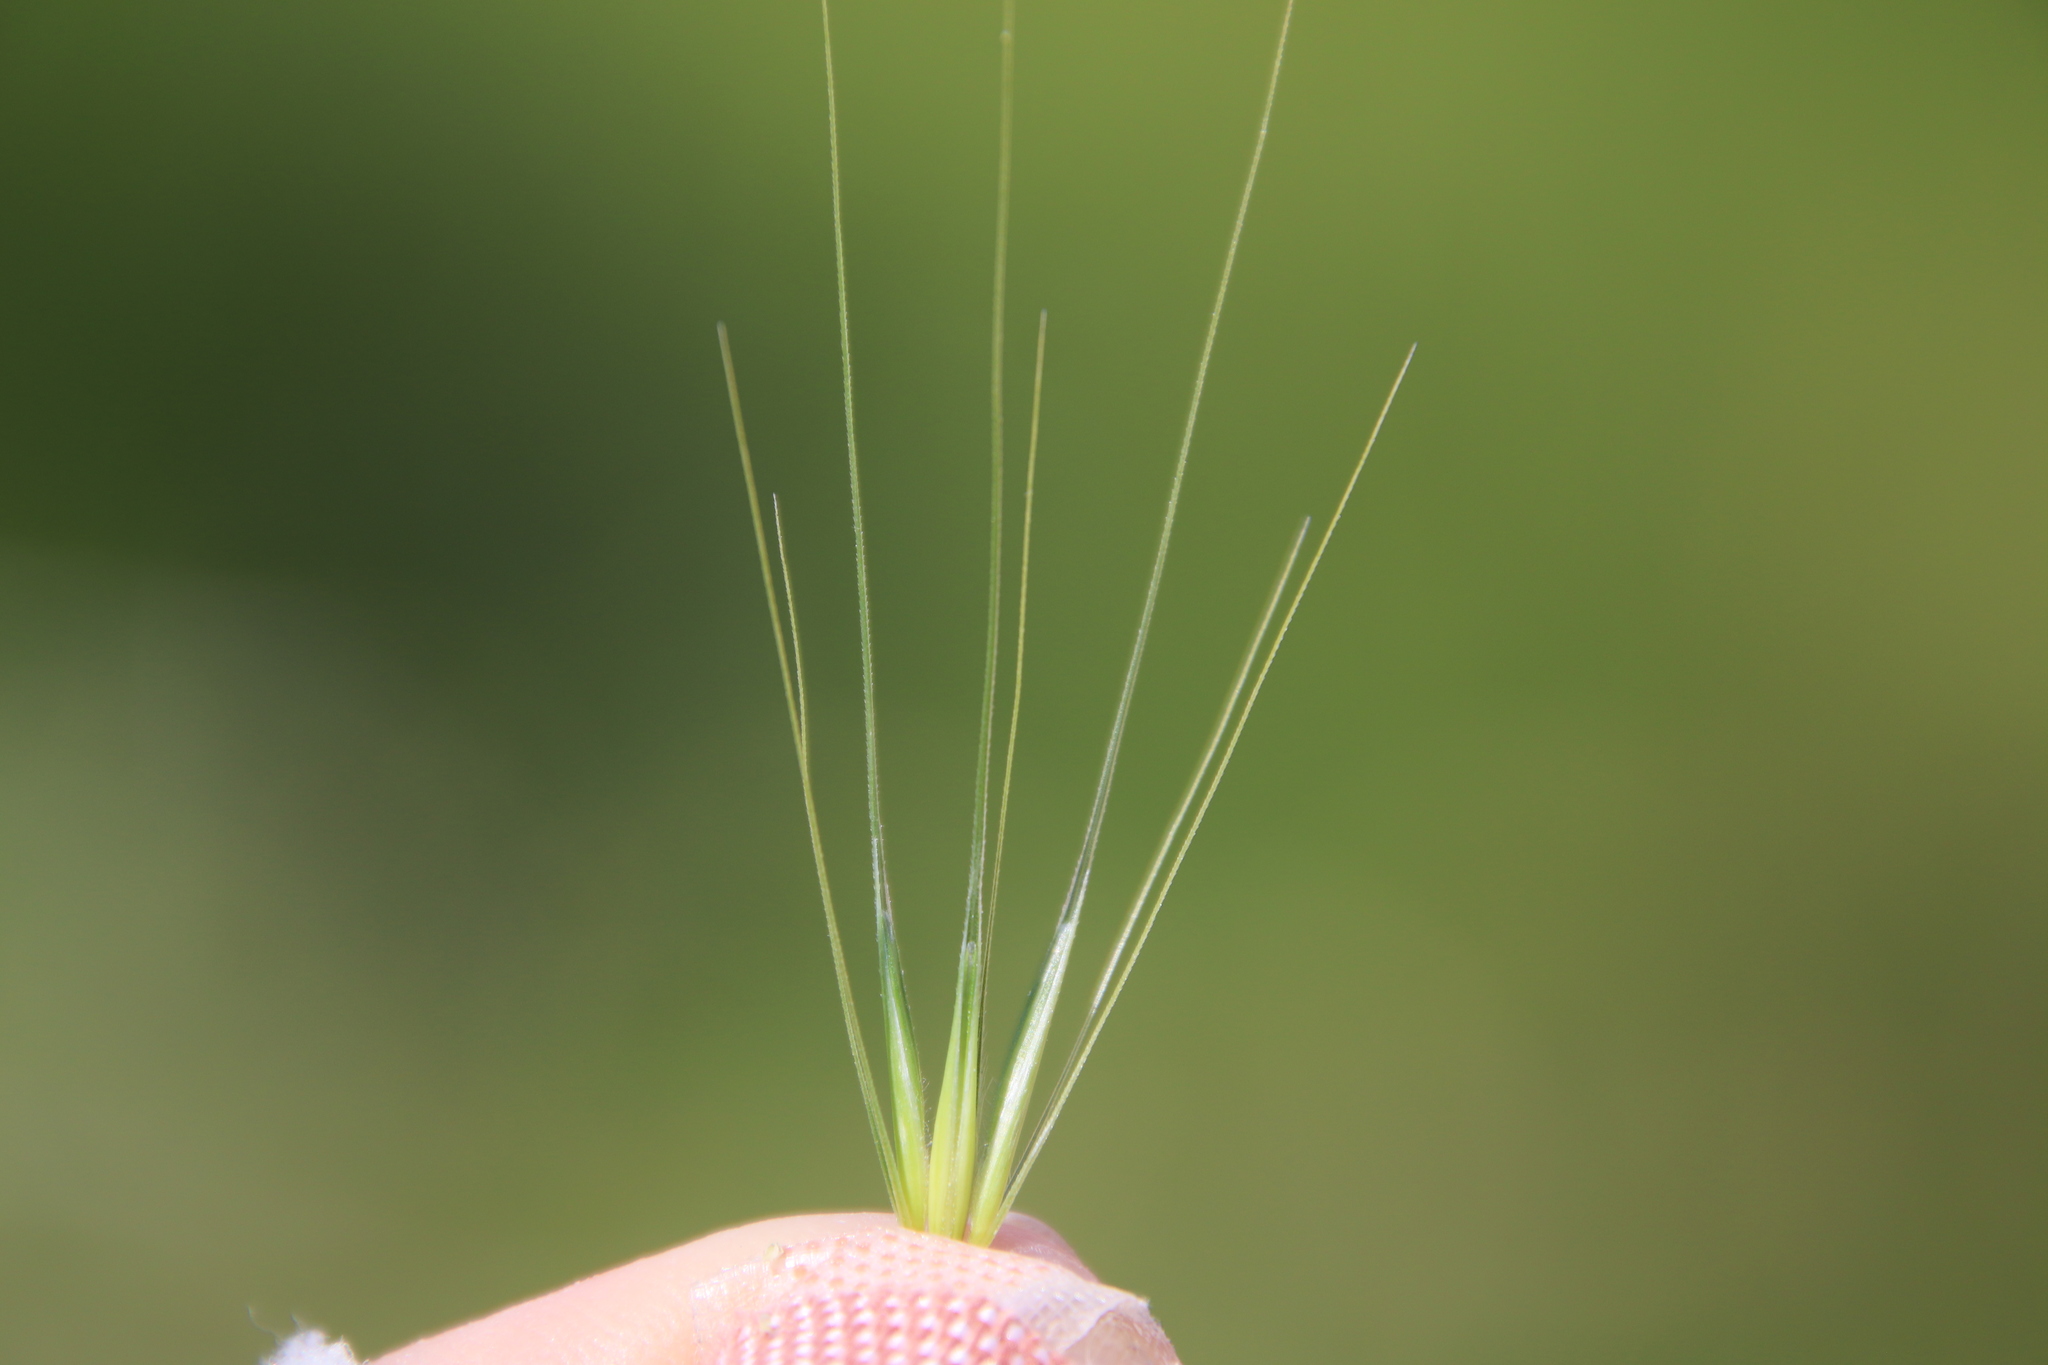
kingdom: Plantae
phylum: Tracheophyta
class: Liliopsida
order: Poales
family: Poaceae
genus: Hordeum
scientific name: Hordeum murinum
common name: Wall barley
